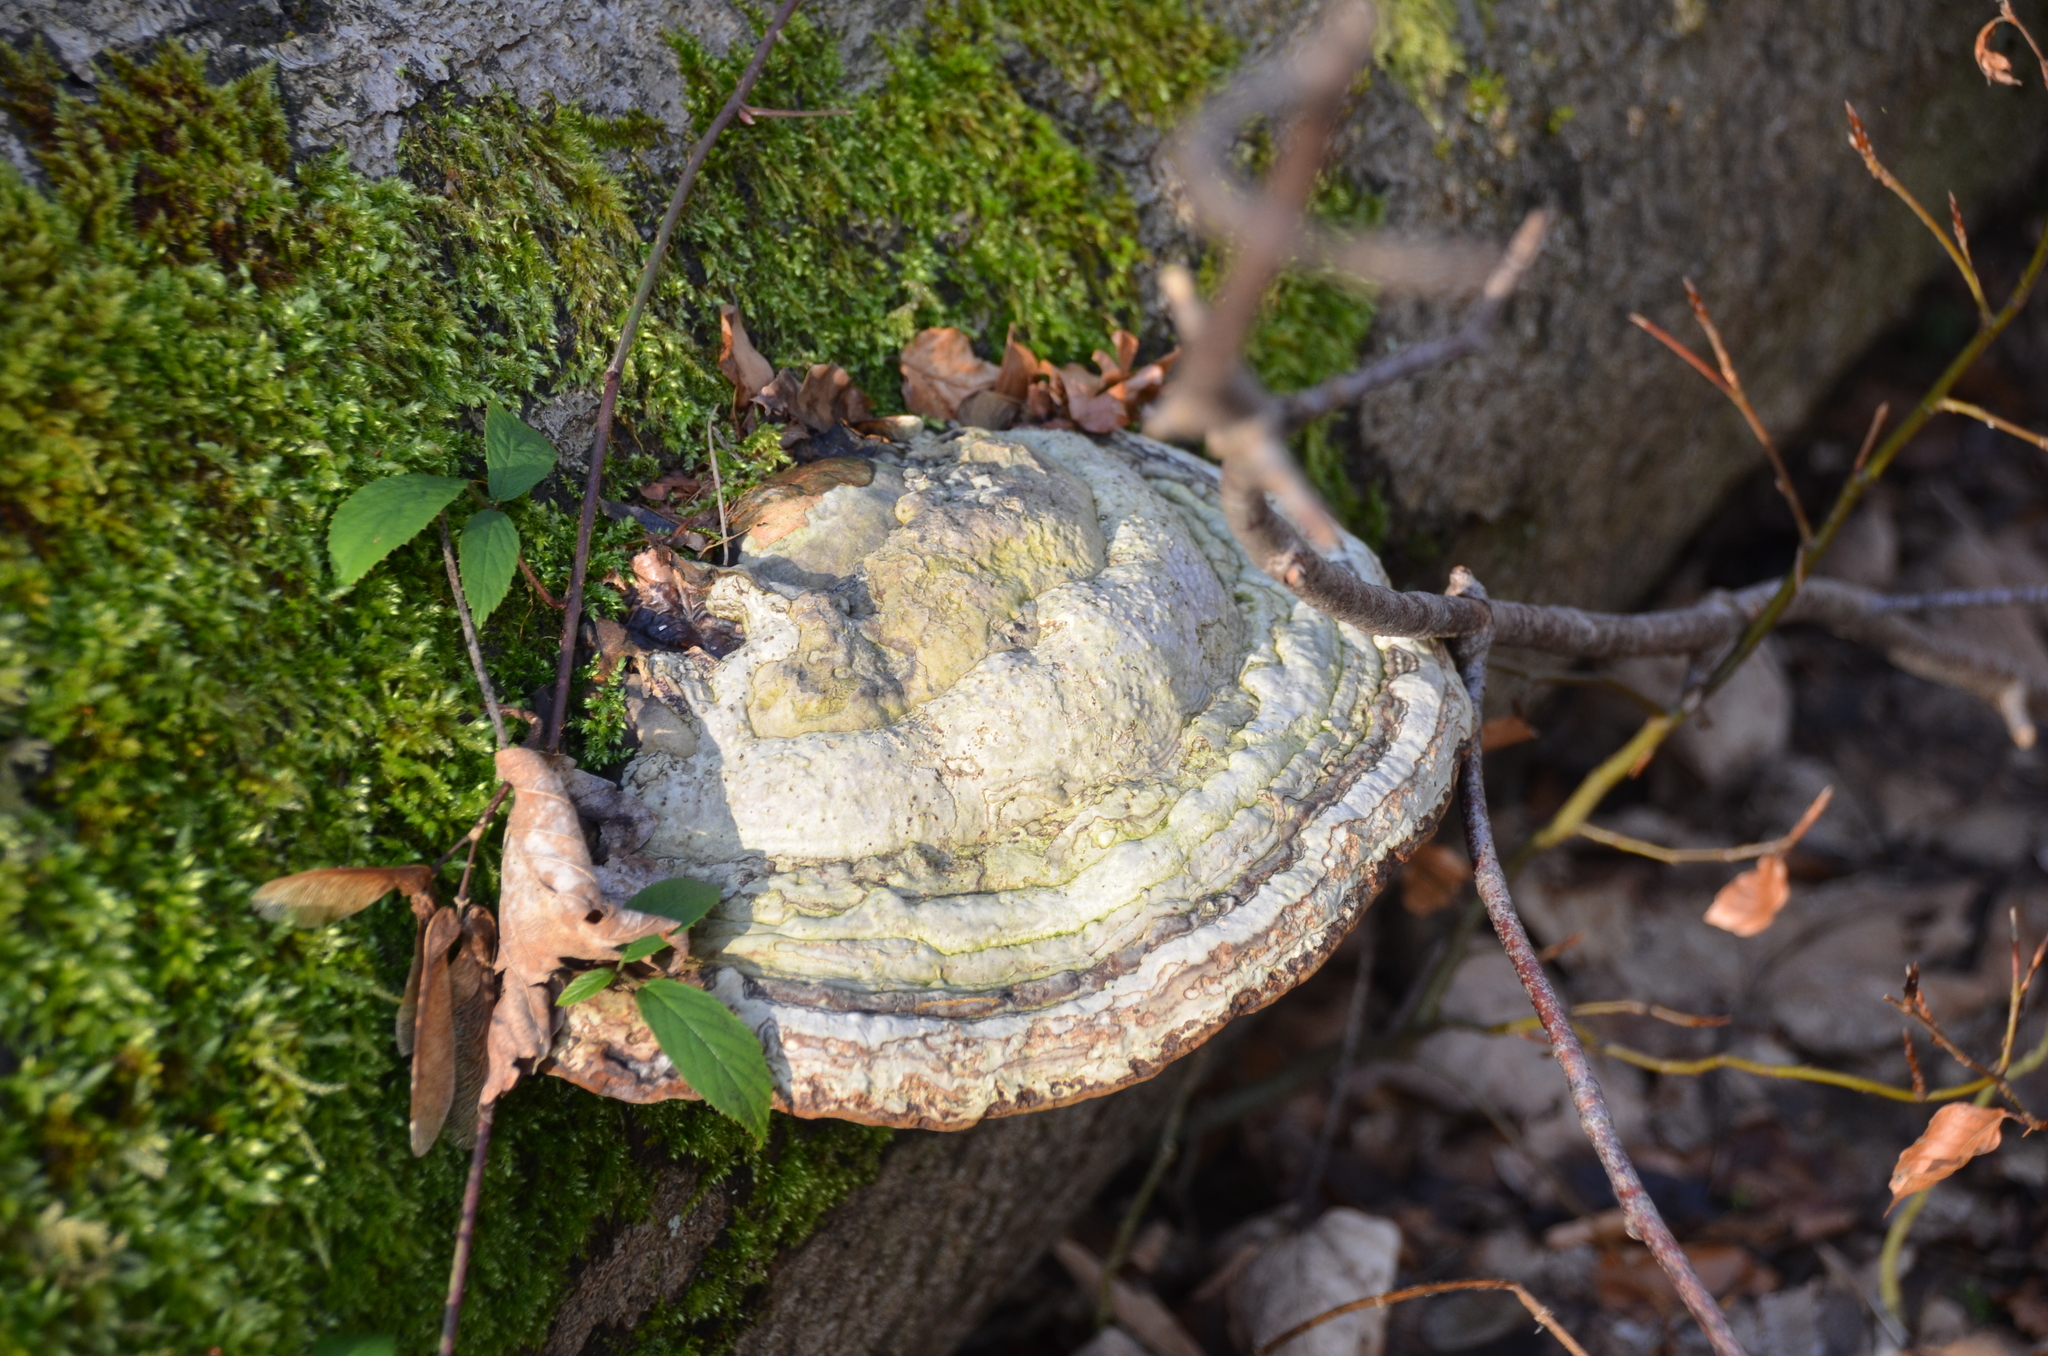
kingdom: Fungi
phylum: Basidiomycota
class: Agaricomycetes
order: Polyporales
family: Polyporaceae
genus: Fomes
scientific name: Fomes fomentarius
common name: Hoof fungus
